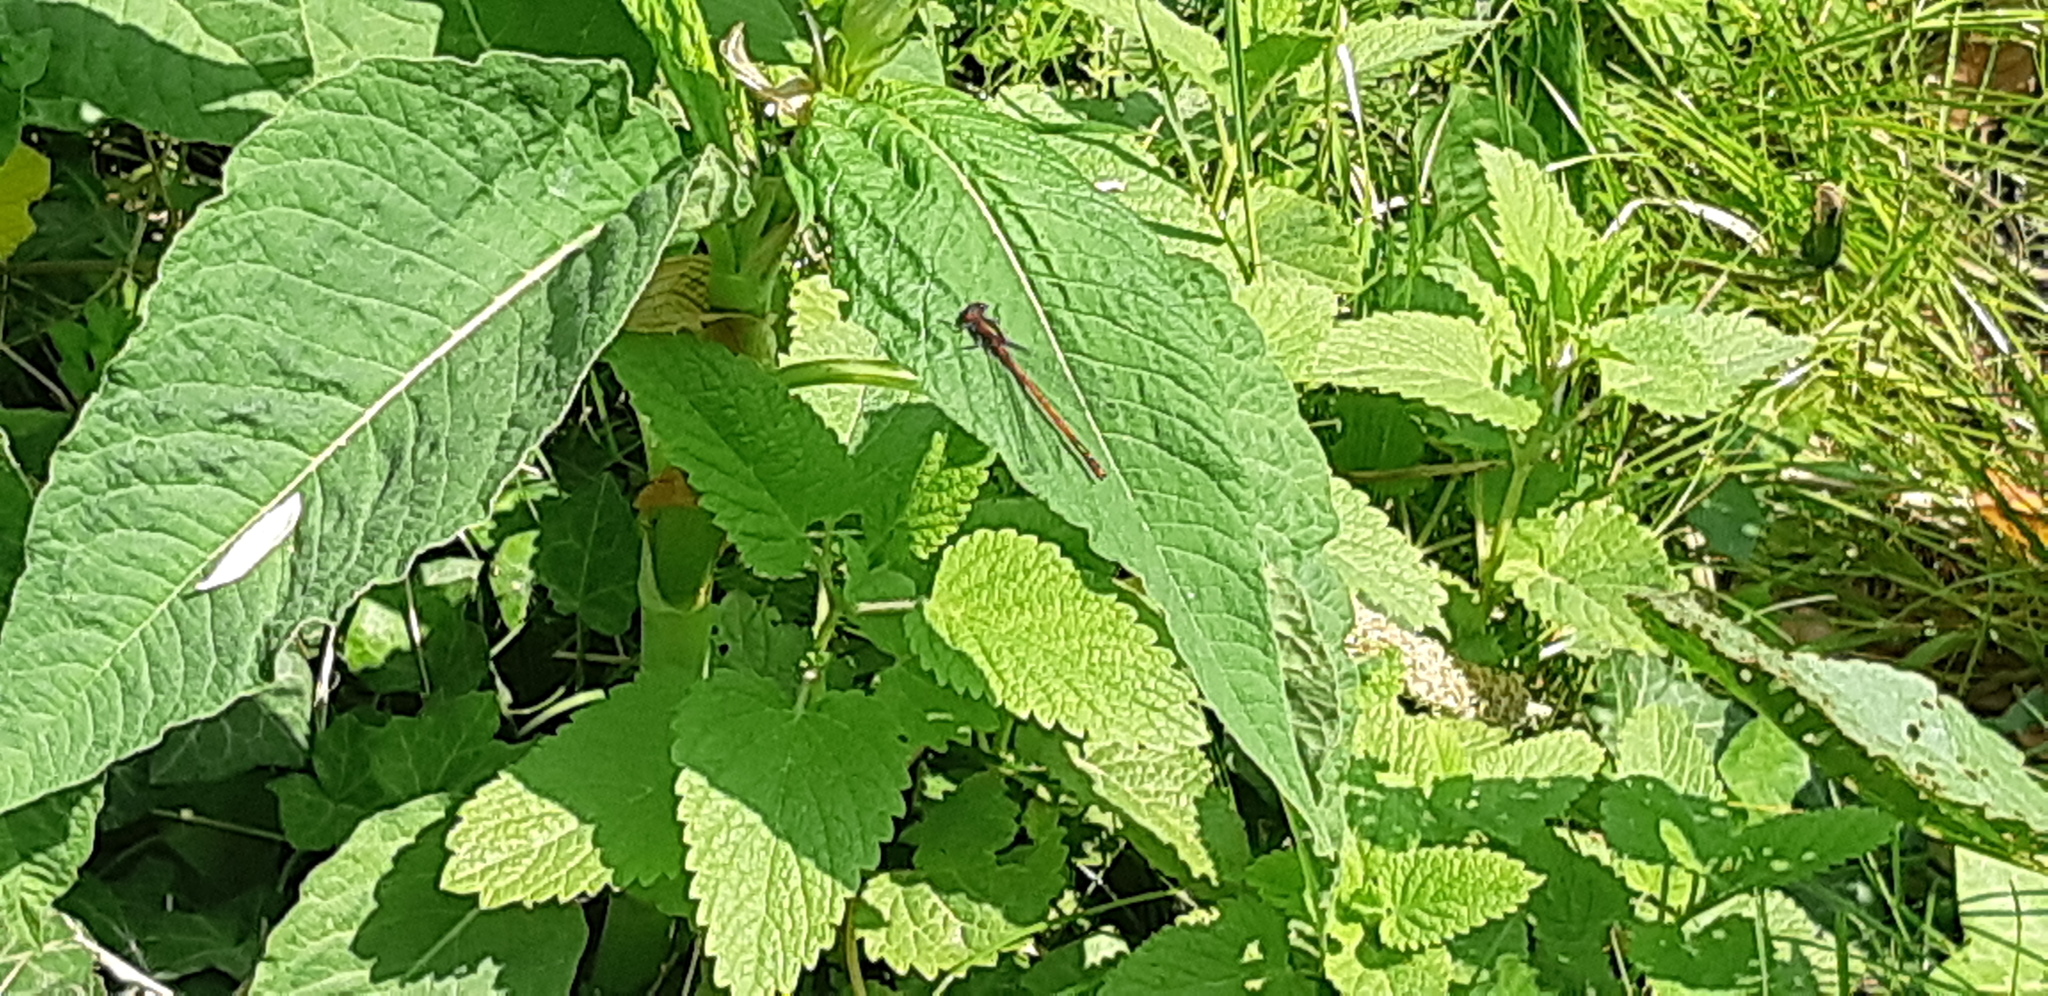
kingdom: Animalia
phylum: Arthropoda
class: Insecta
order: Odonata
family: Coenagrionidae
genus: Pyrrhosoma
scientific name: Pyrrhosoma nymphula
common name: Large red damsel
